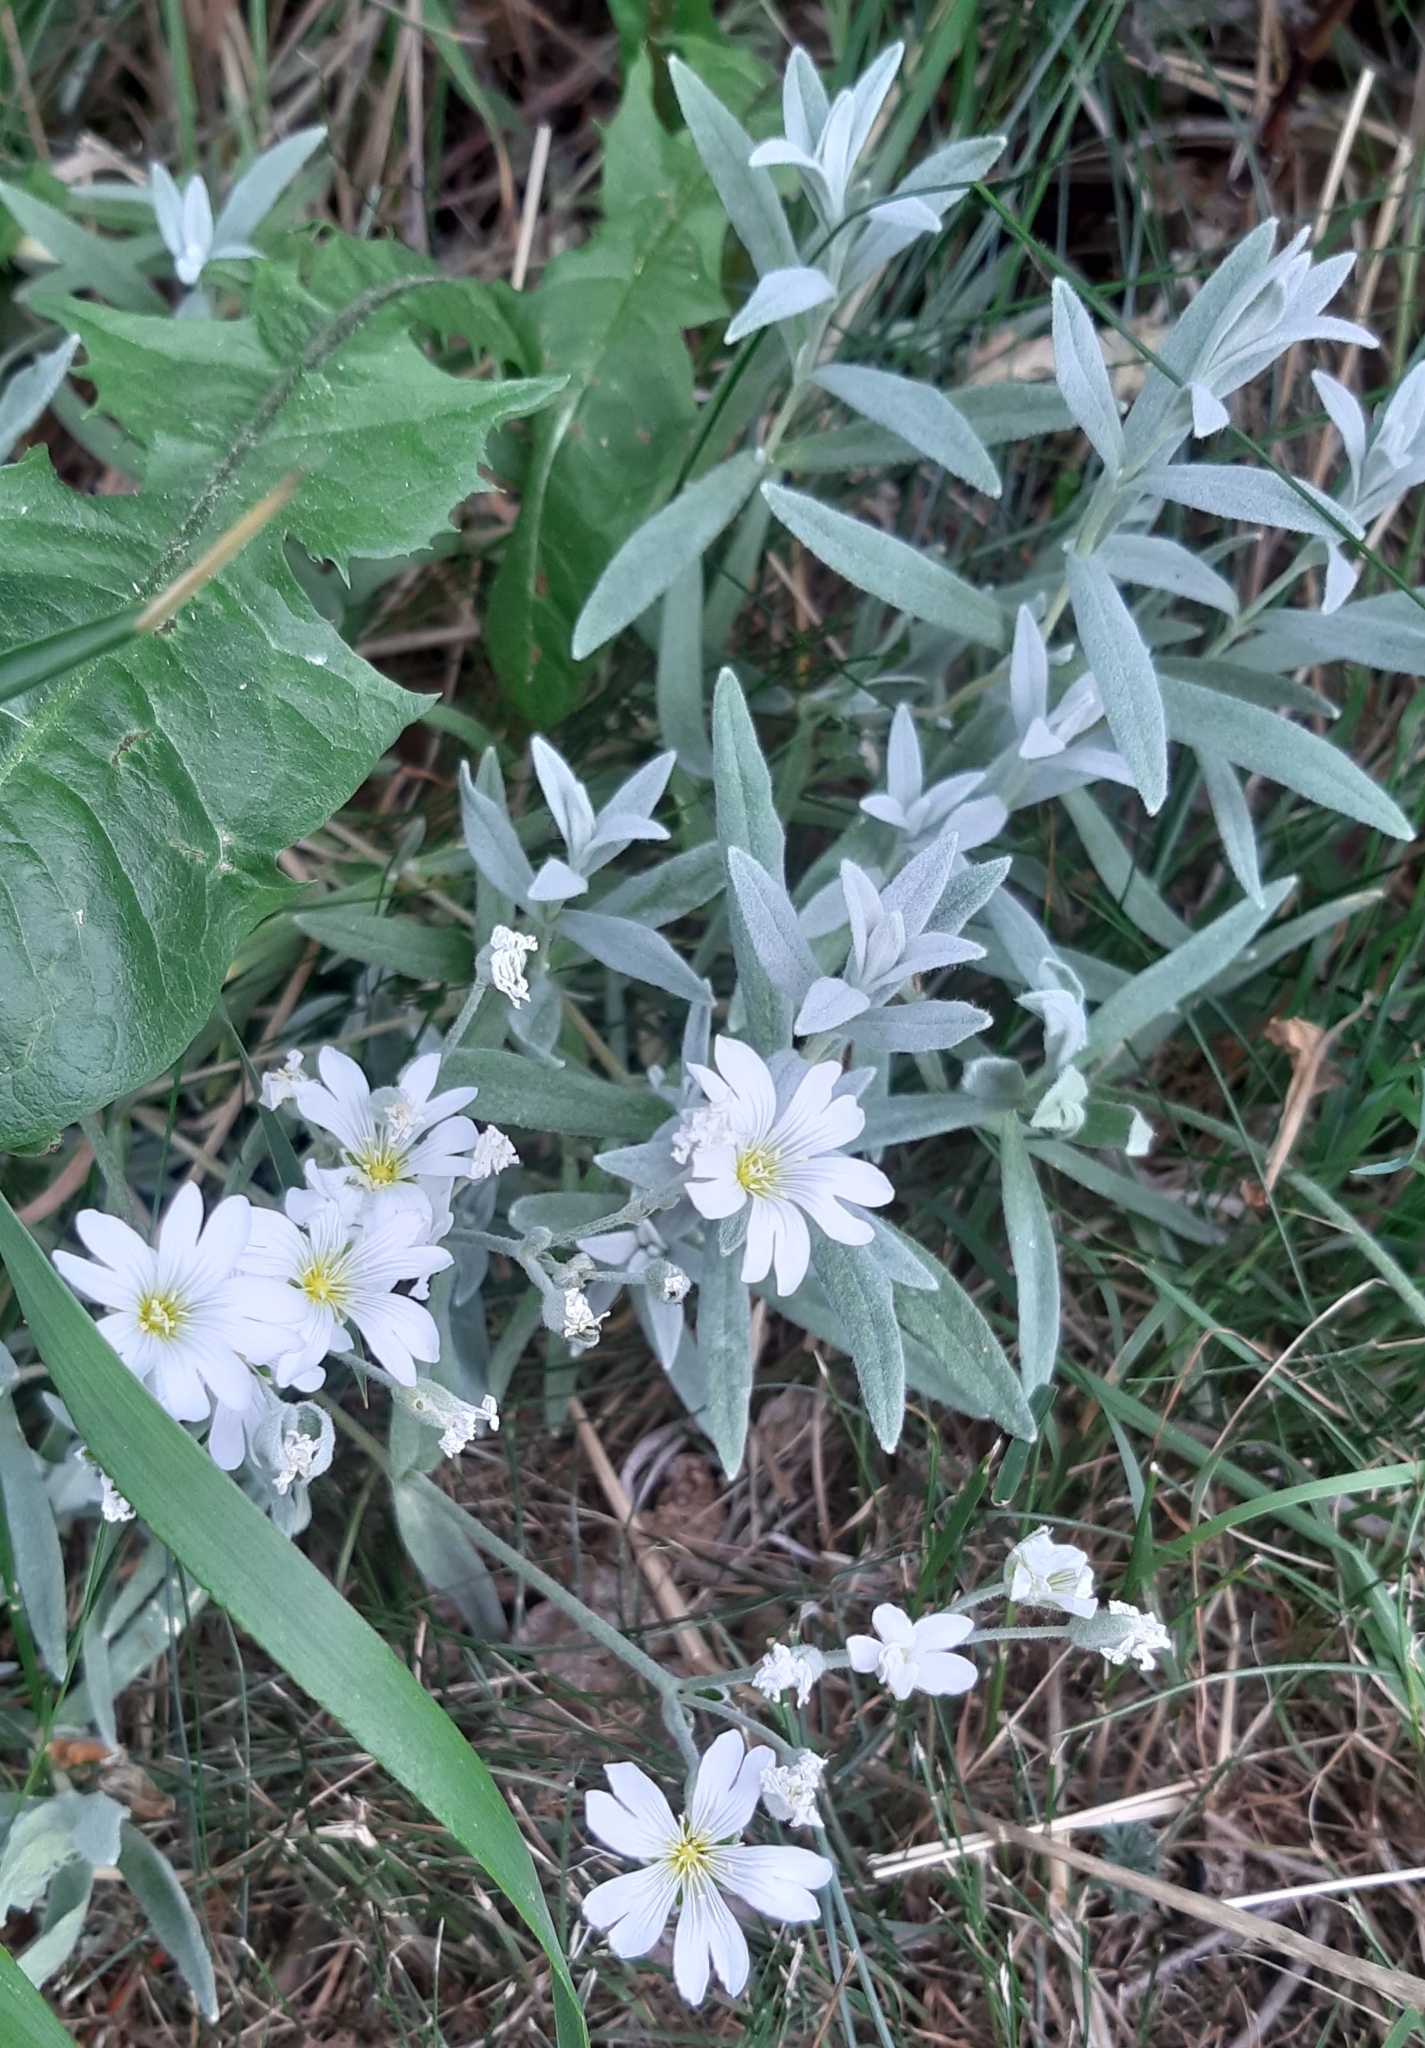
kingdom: Plantae
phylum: Tracheophyta
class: Magnoliopsida
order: Caryophyllales
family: Caryophyllaceae
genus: Cerastium
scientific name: Cerastium tomentosum
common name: Snow-in-summer
